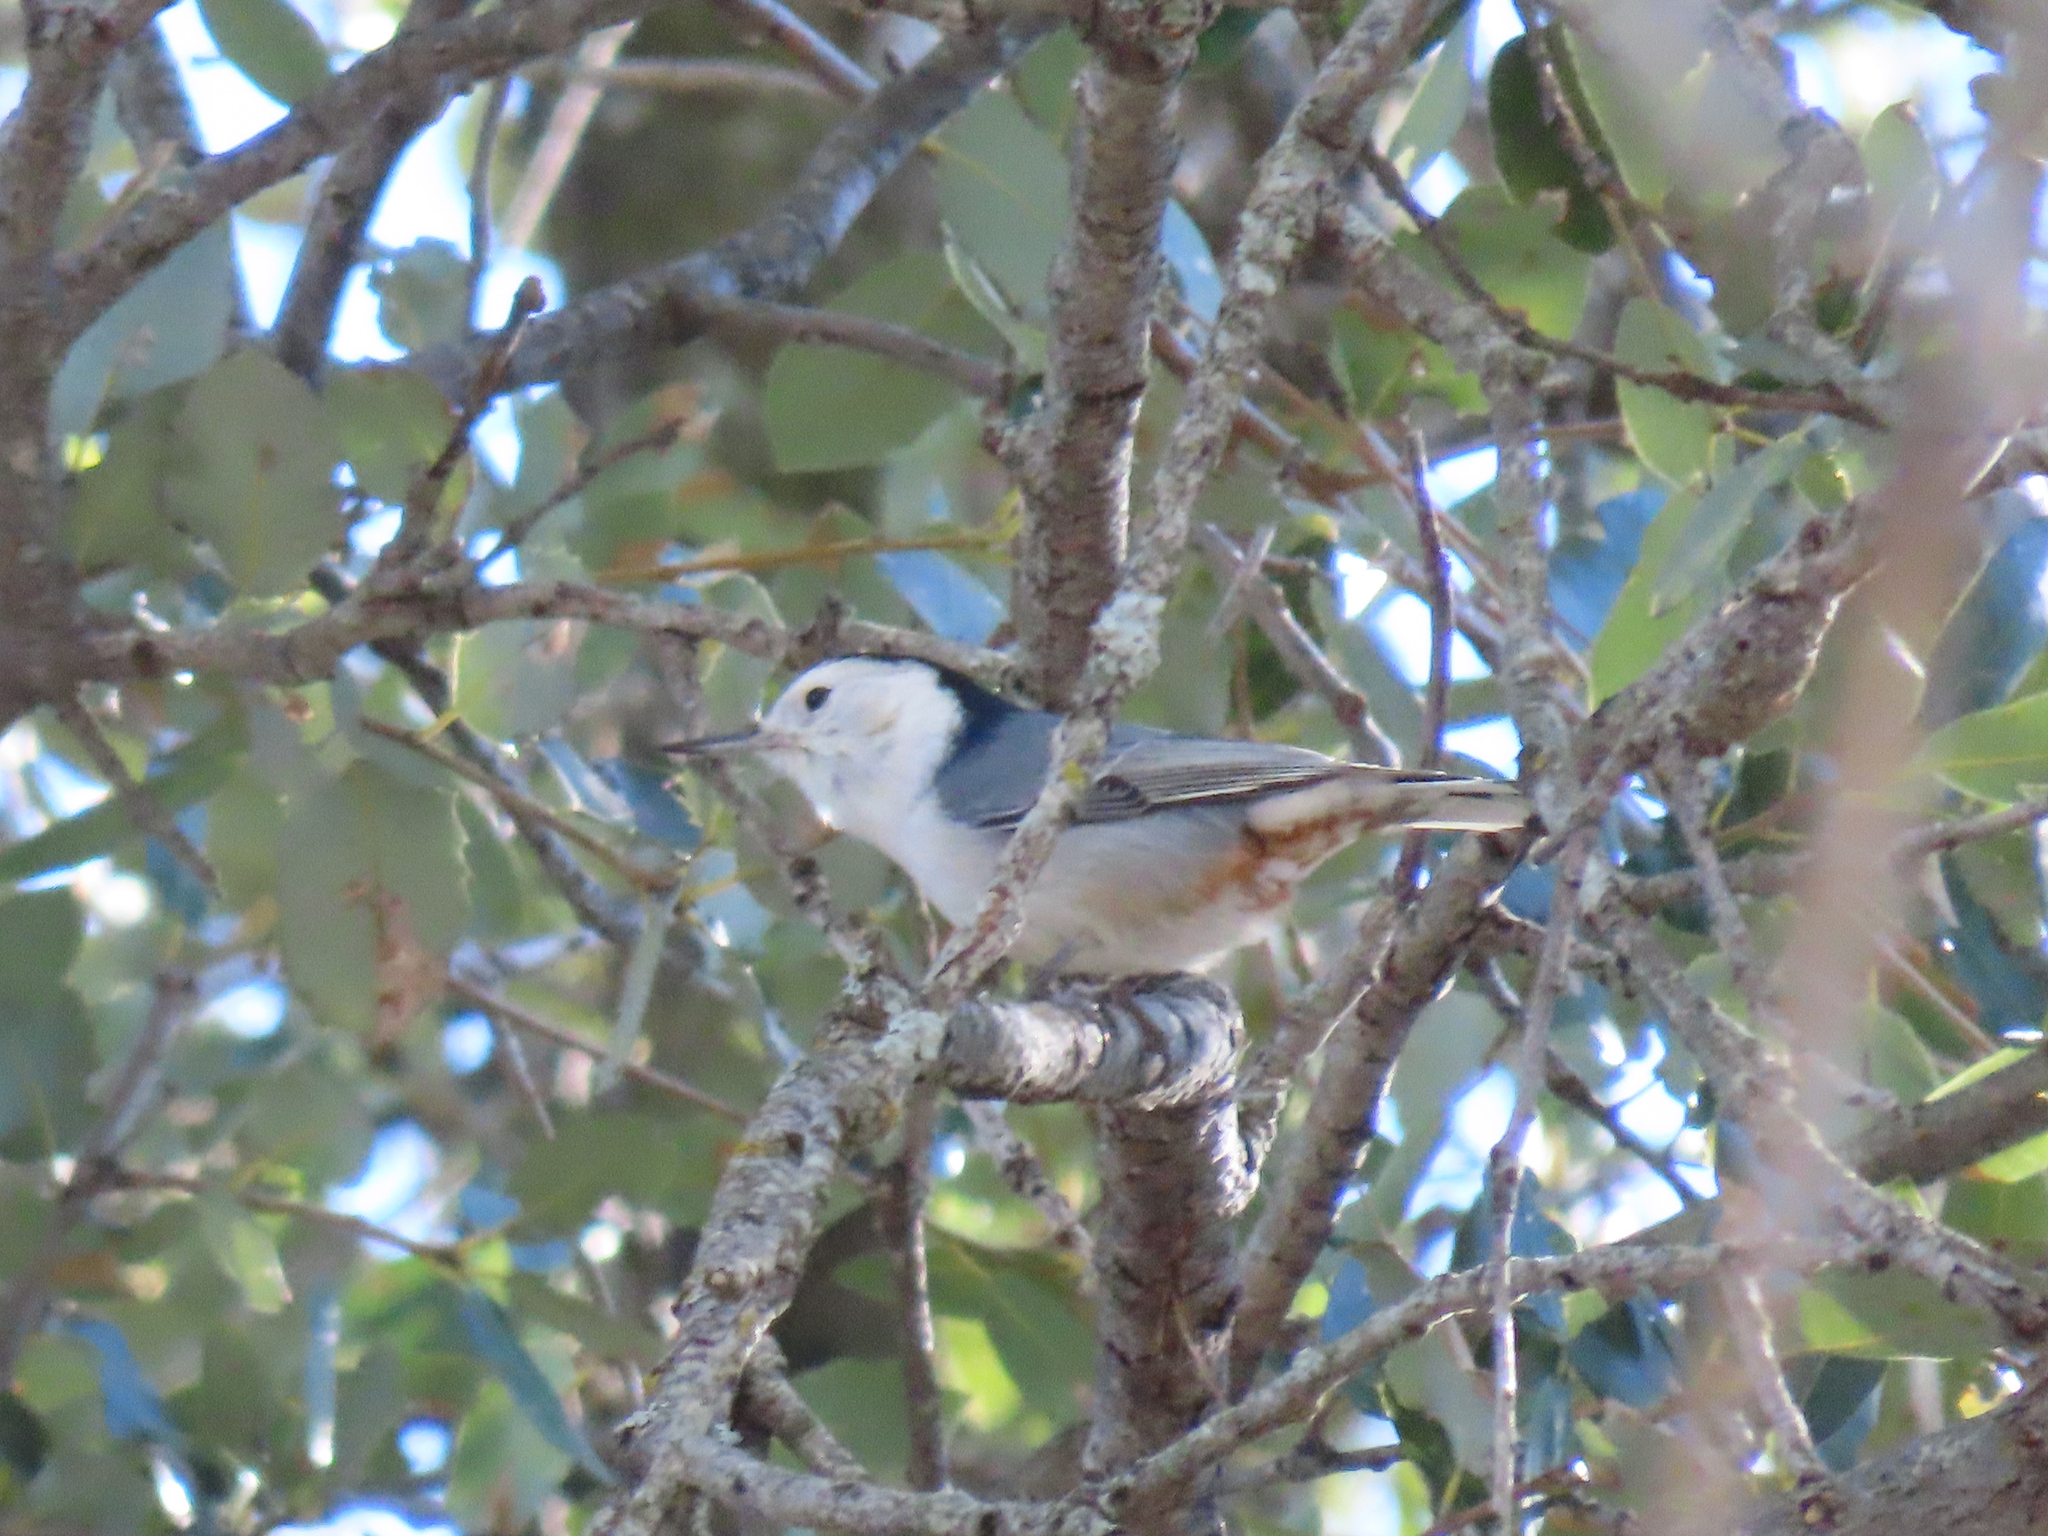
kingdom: Animalia
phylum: Chordata
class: Aves
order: Passeriformes
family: Sittidae
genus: Sitta
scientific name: Sitta carolinensis
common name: White-breasted nuthatch
